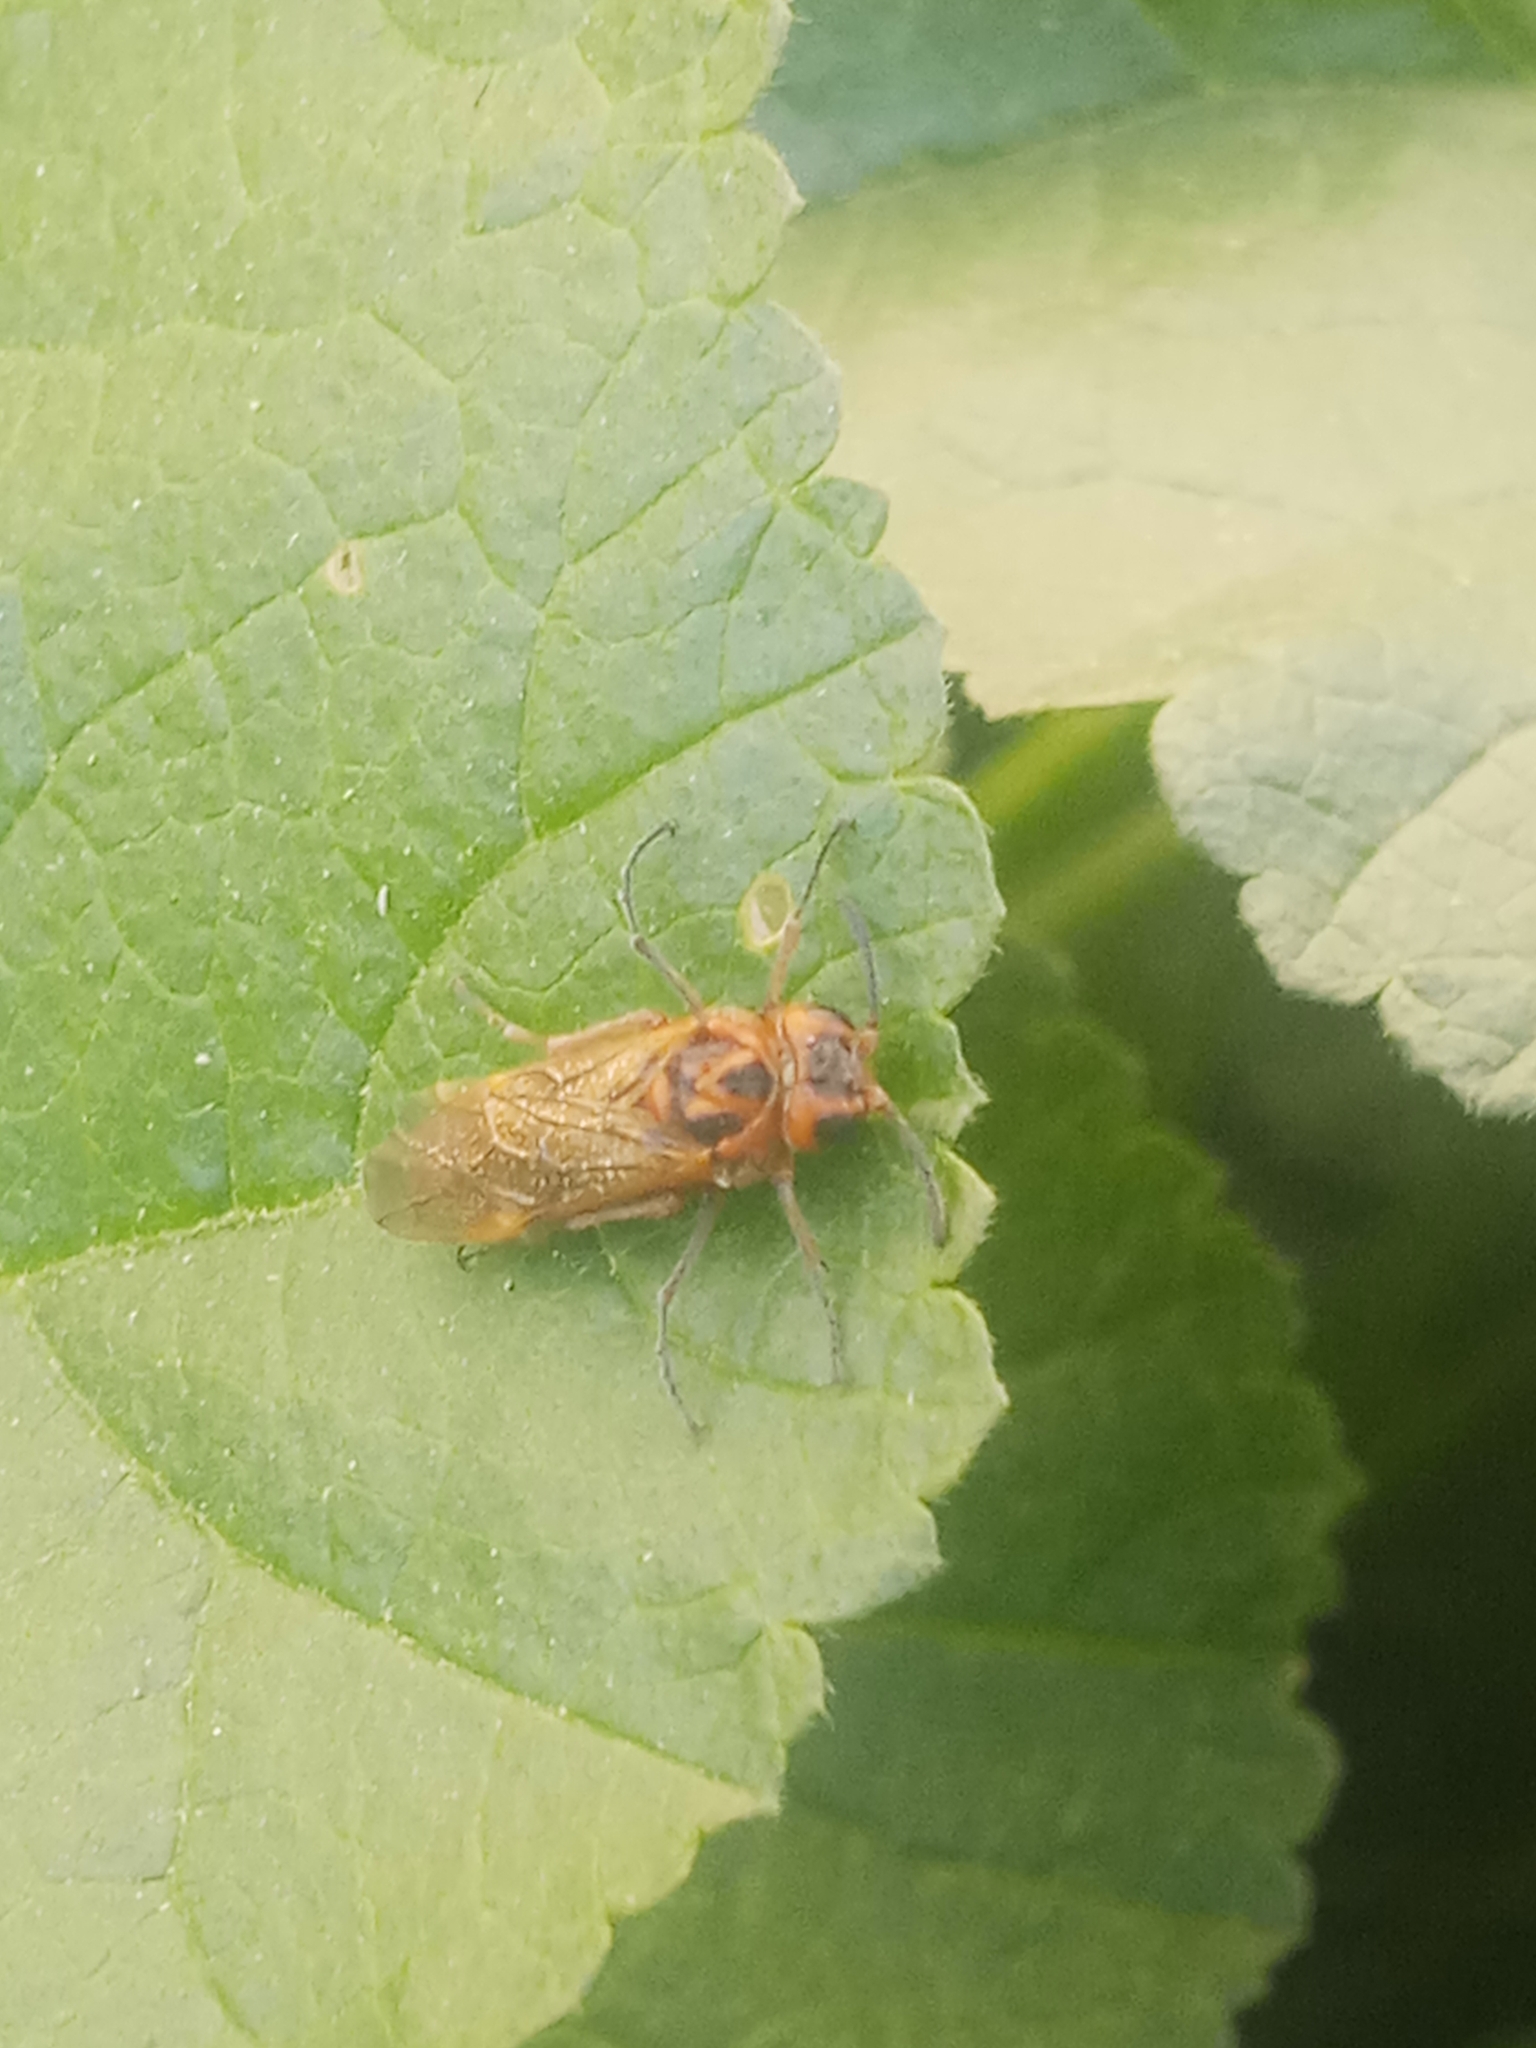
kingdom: Animalia
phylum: Arthropoda
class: Insecta
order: Hymenoptera
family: Tenthredinidae
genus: Tenthredo
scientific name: Tenthredo
